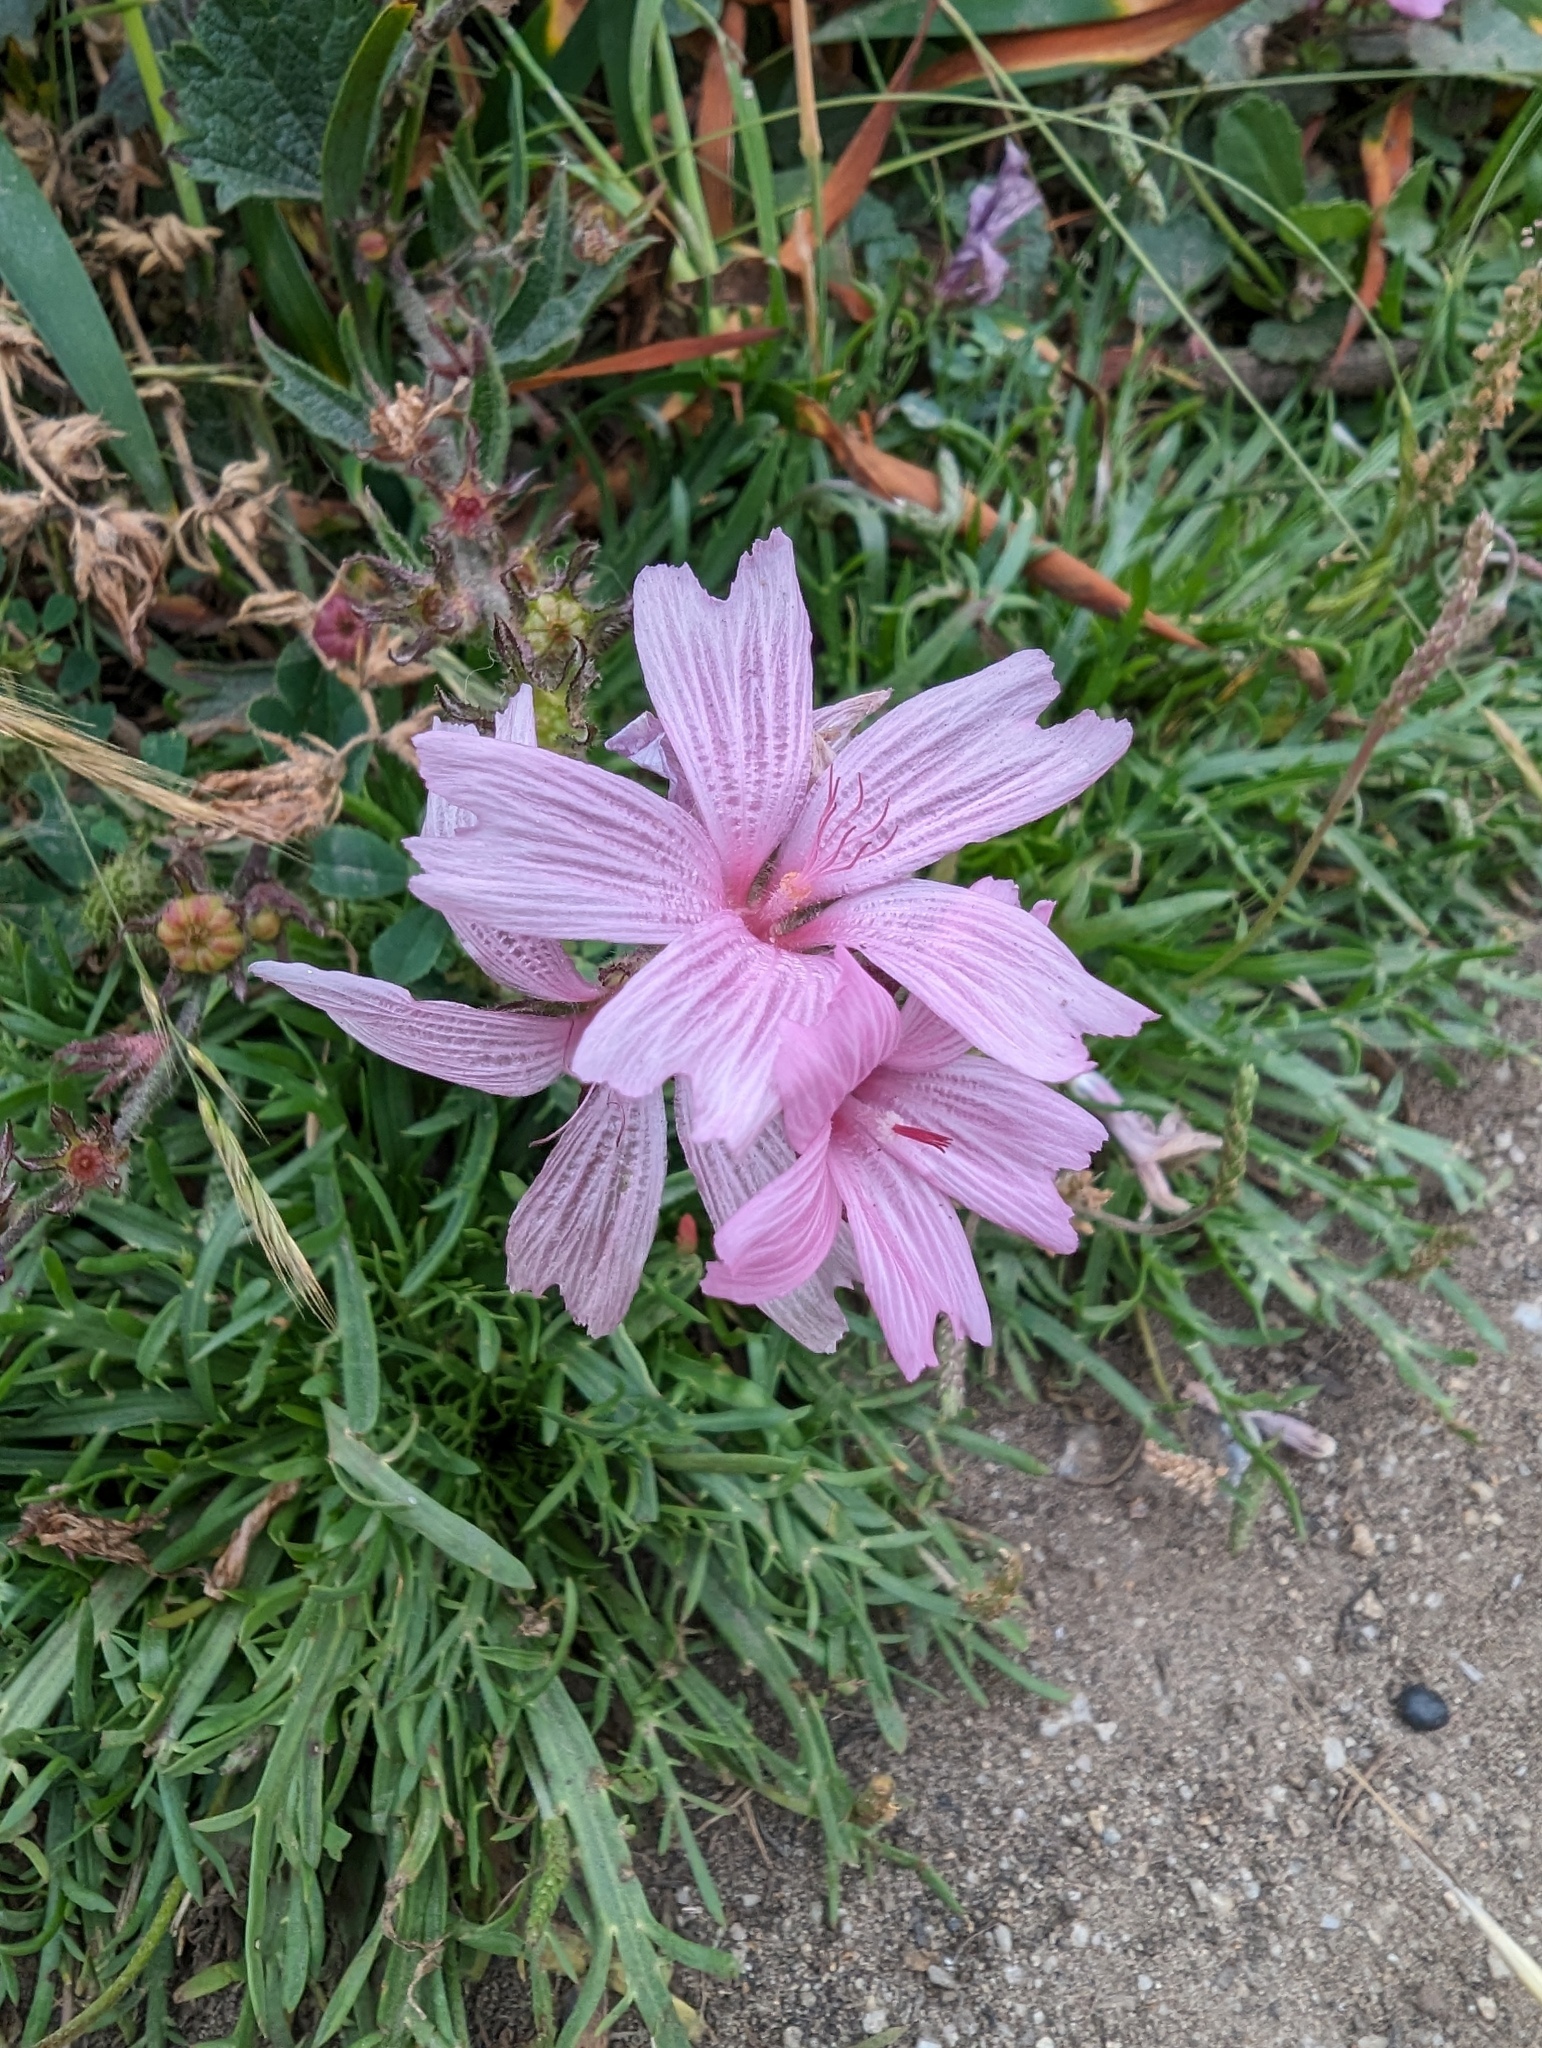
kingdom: Plantae
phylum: Tracheophyta
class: Magnoliopsida
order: Malvales
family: Malvaceae
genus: Sidalcea
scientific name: Sidalcea malviflora
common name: Greek mallow
